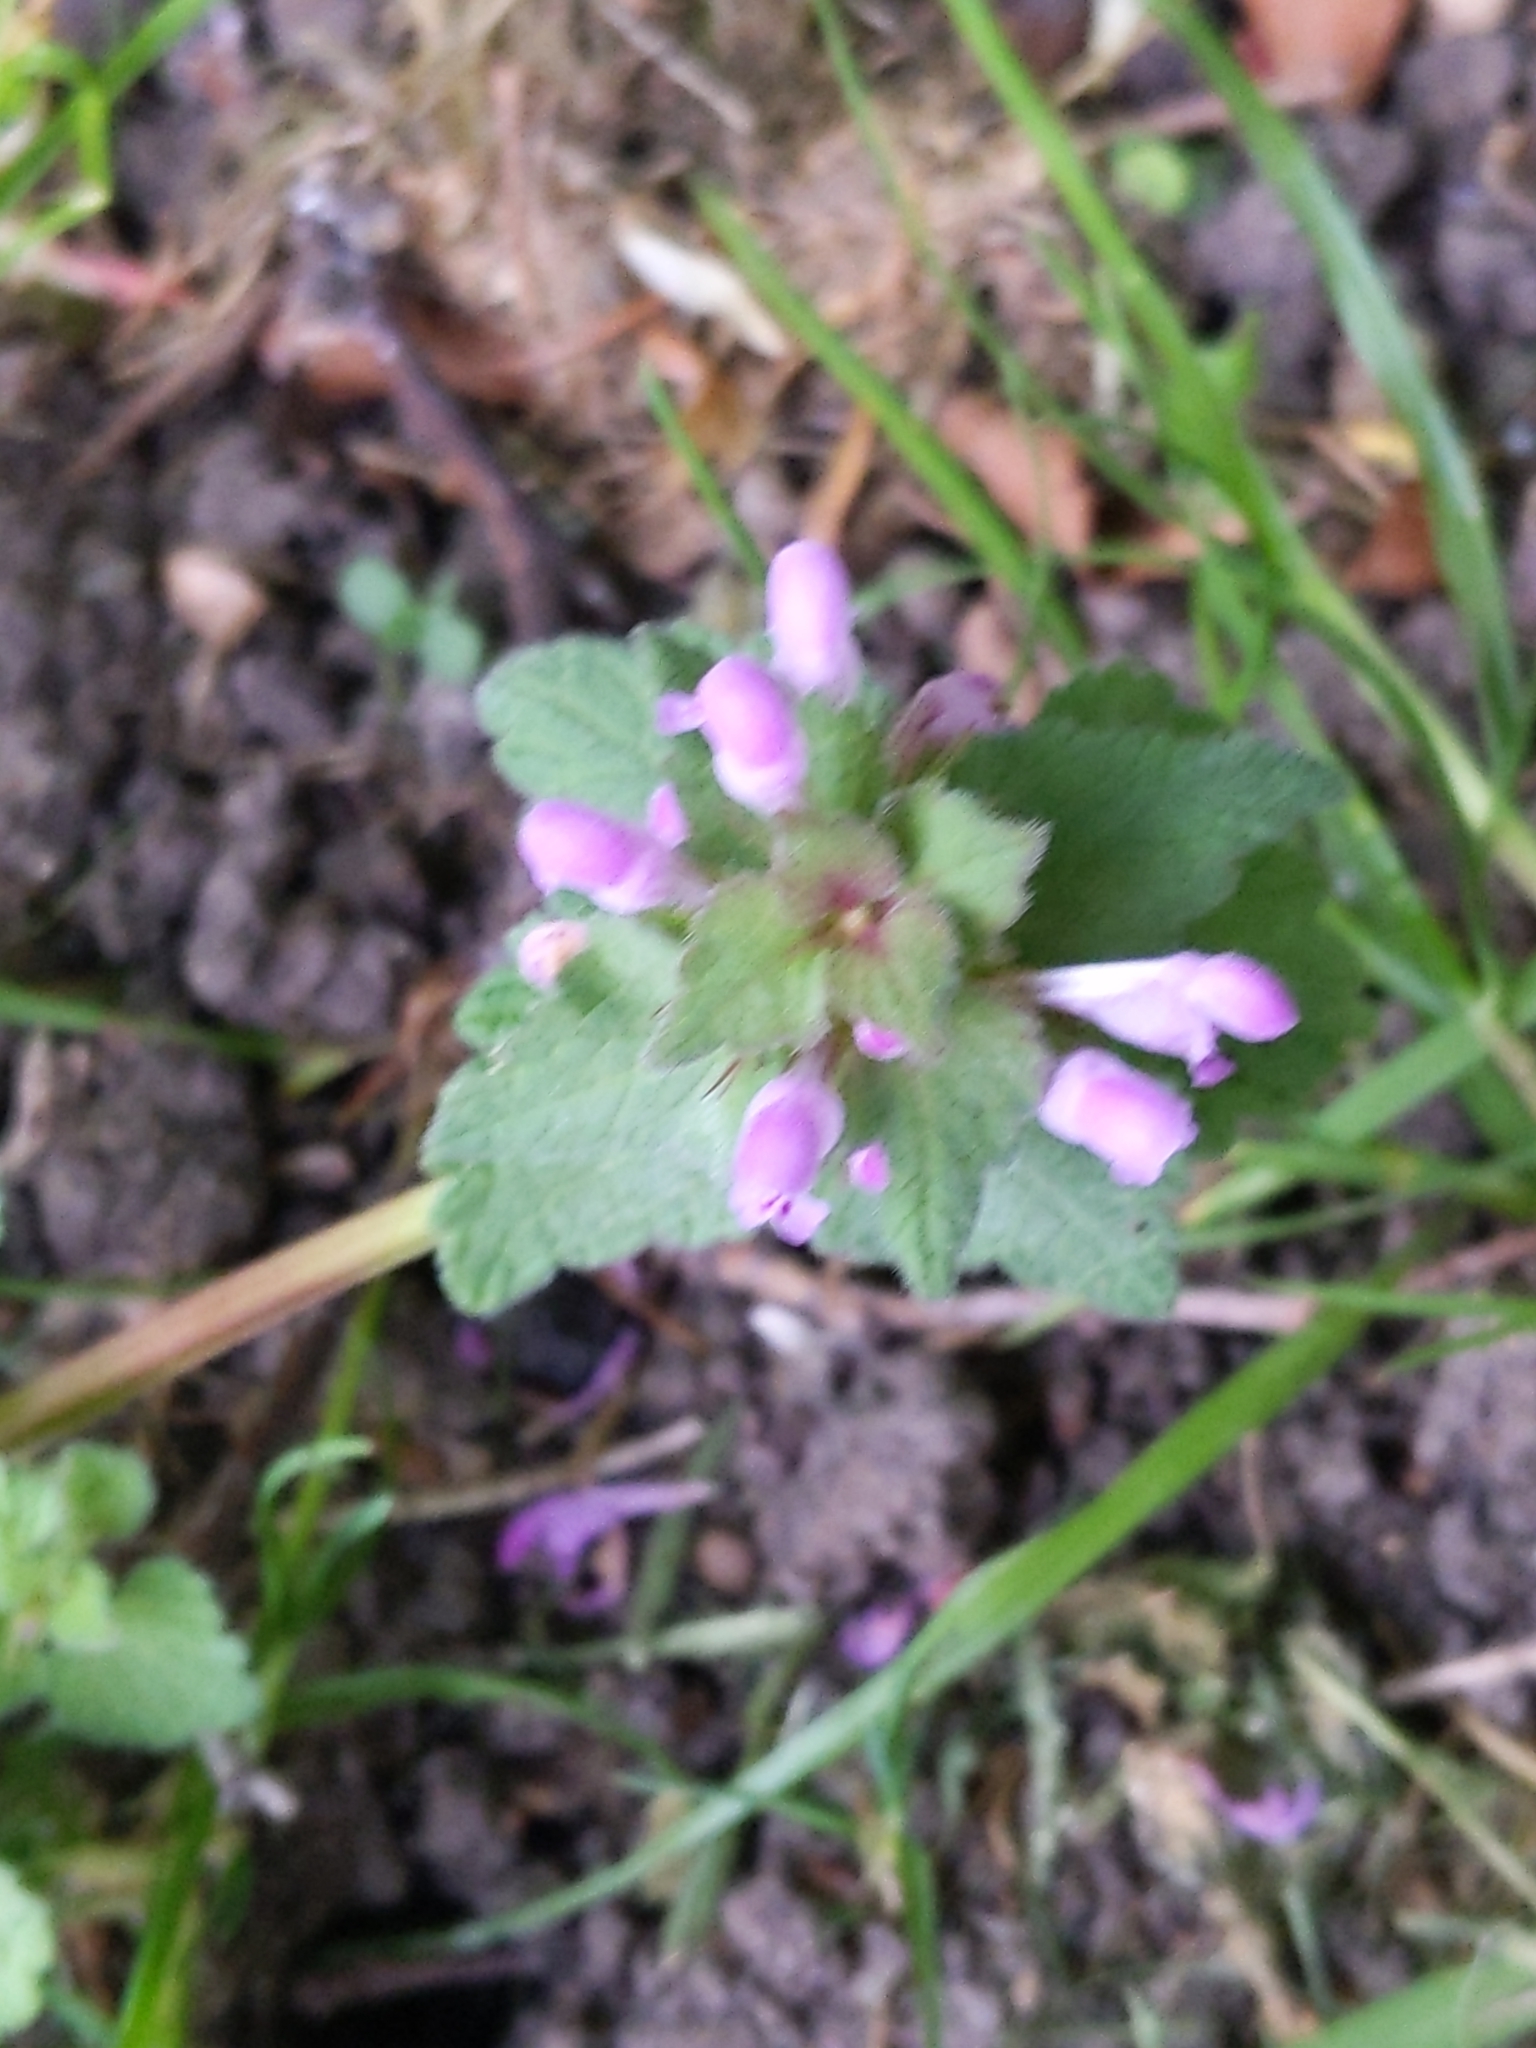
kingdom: Plantae
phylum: Tracheophyta
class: Magnoliopsida
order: Lamiales
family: Lamiaceae
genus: Lamium
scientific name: Lamium purpureum
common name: Red dead-nettle
